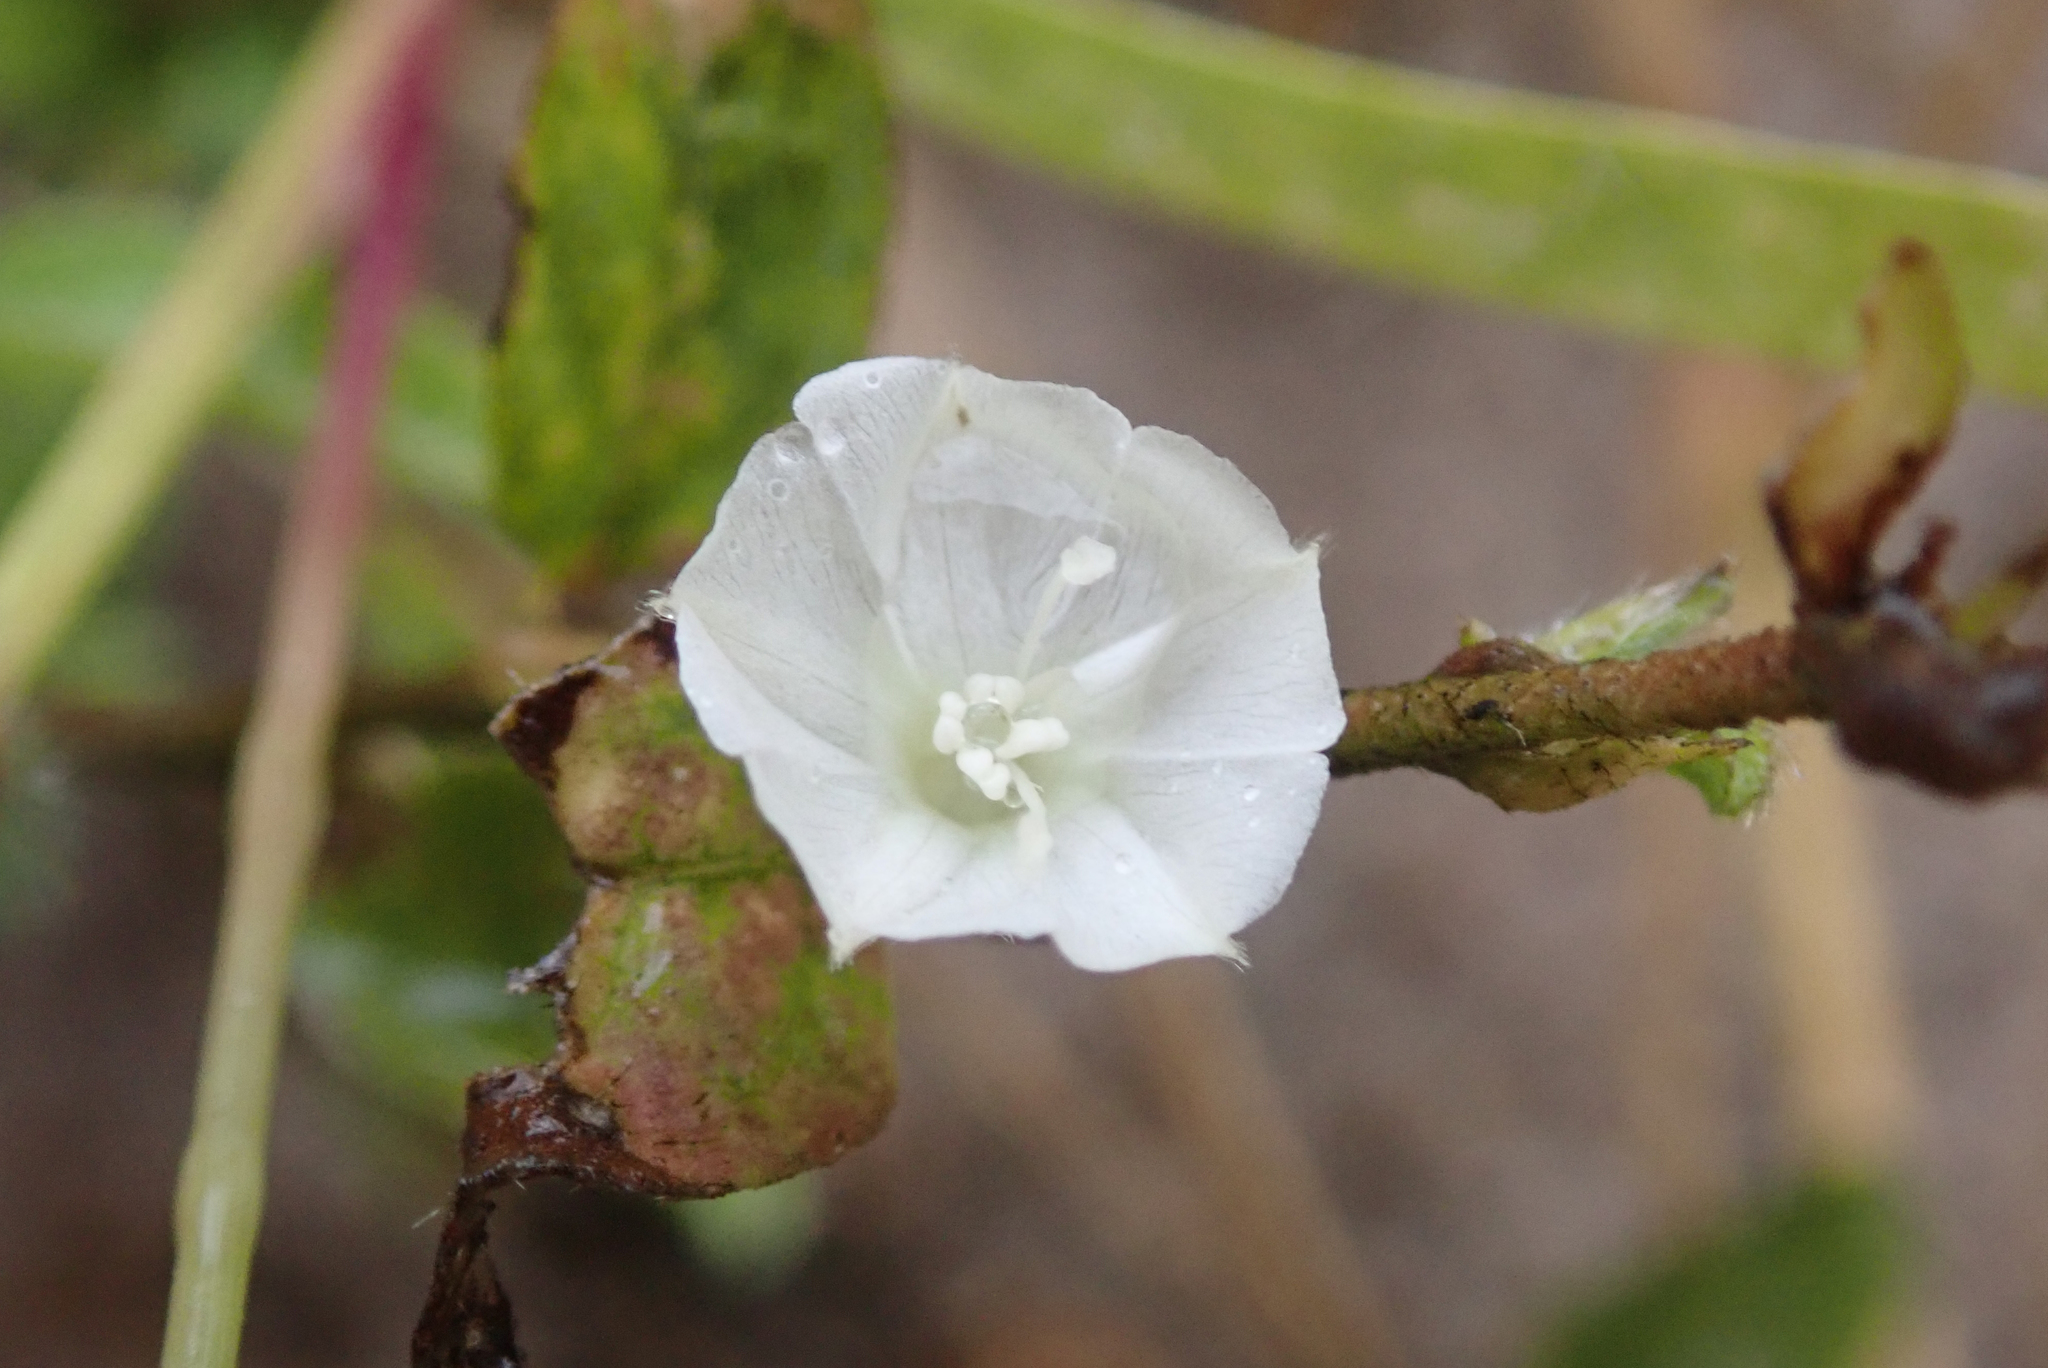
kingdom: Plantae
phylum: Tracheophyta
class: Magnoliopsida
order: Solanales
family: Convolvulaceae
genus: Ipomoea
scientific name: Ipomoea chloroneura
